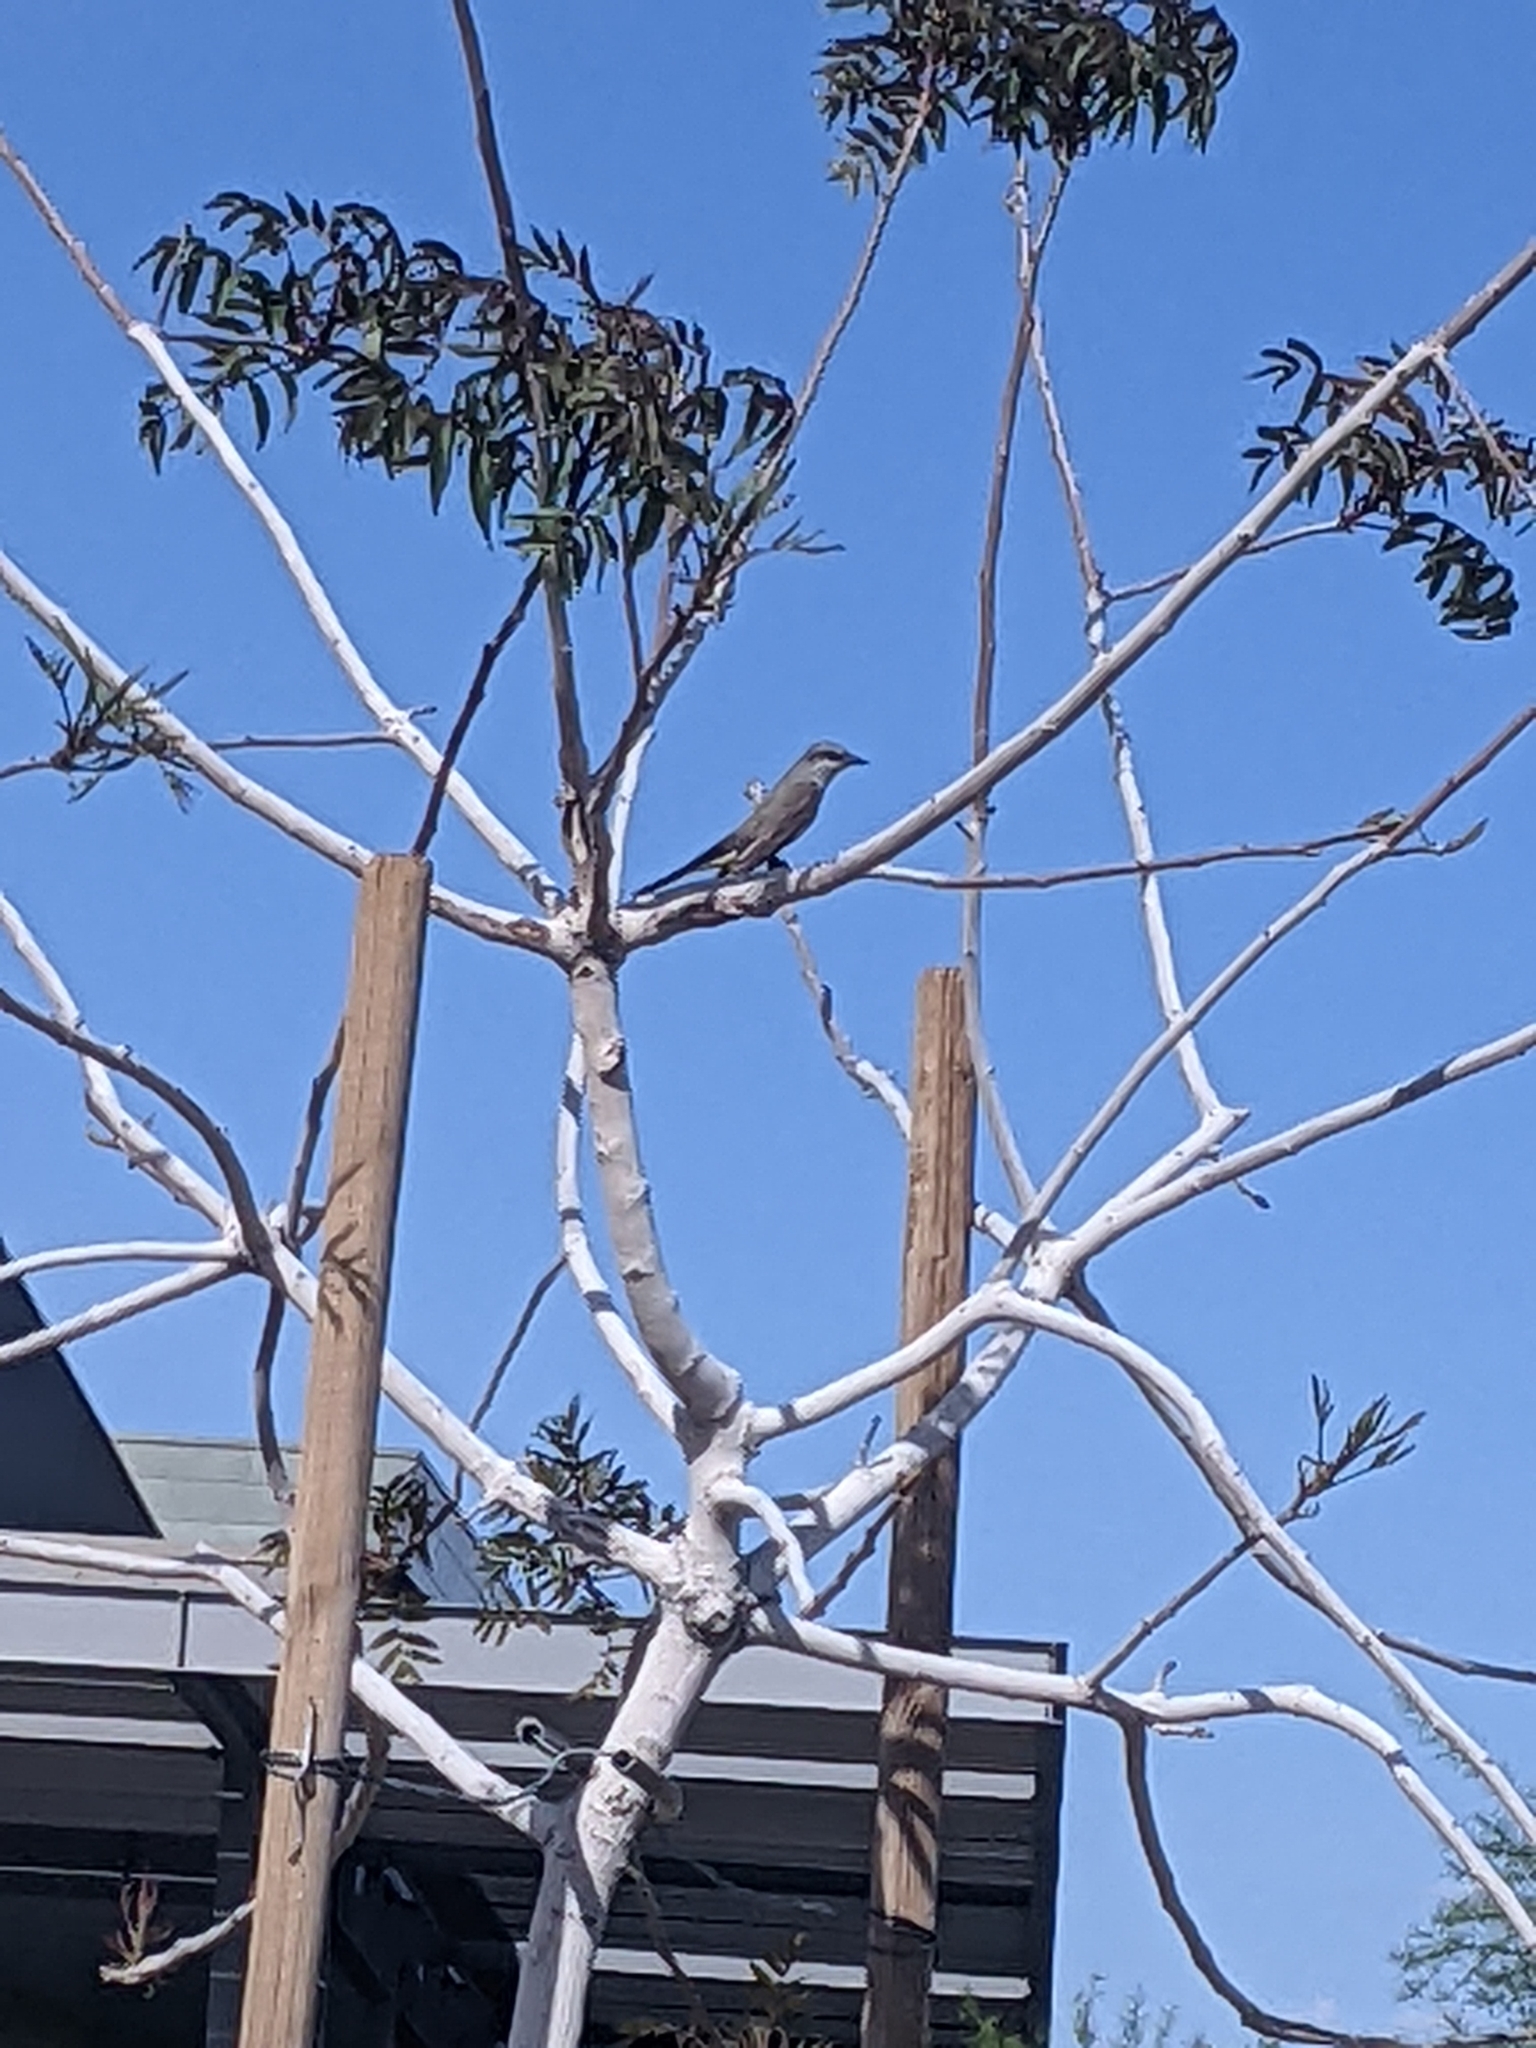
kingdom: Animalia
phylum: Chordata
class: Aves
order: Passeriformes
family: Tyrannidae
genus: Tyrannus
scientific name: Tyrannus verticalis
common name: Western kingbird
